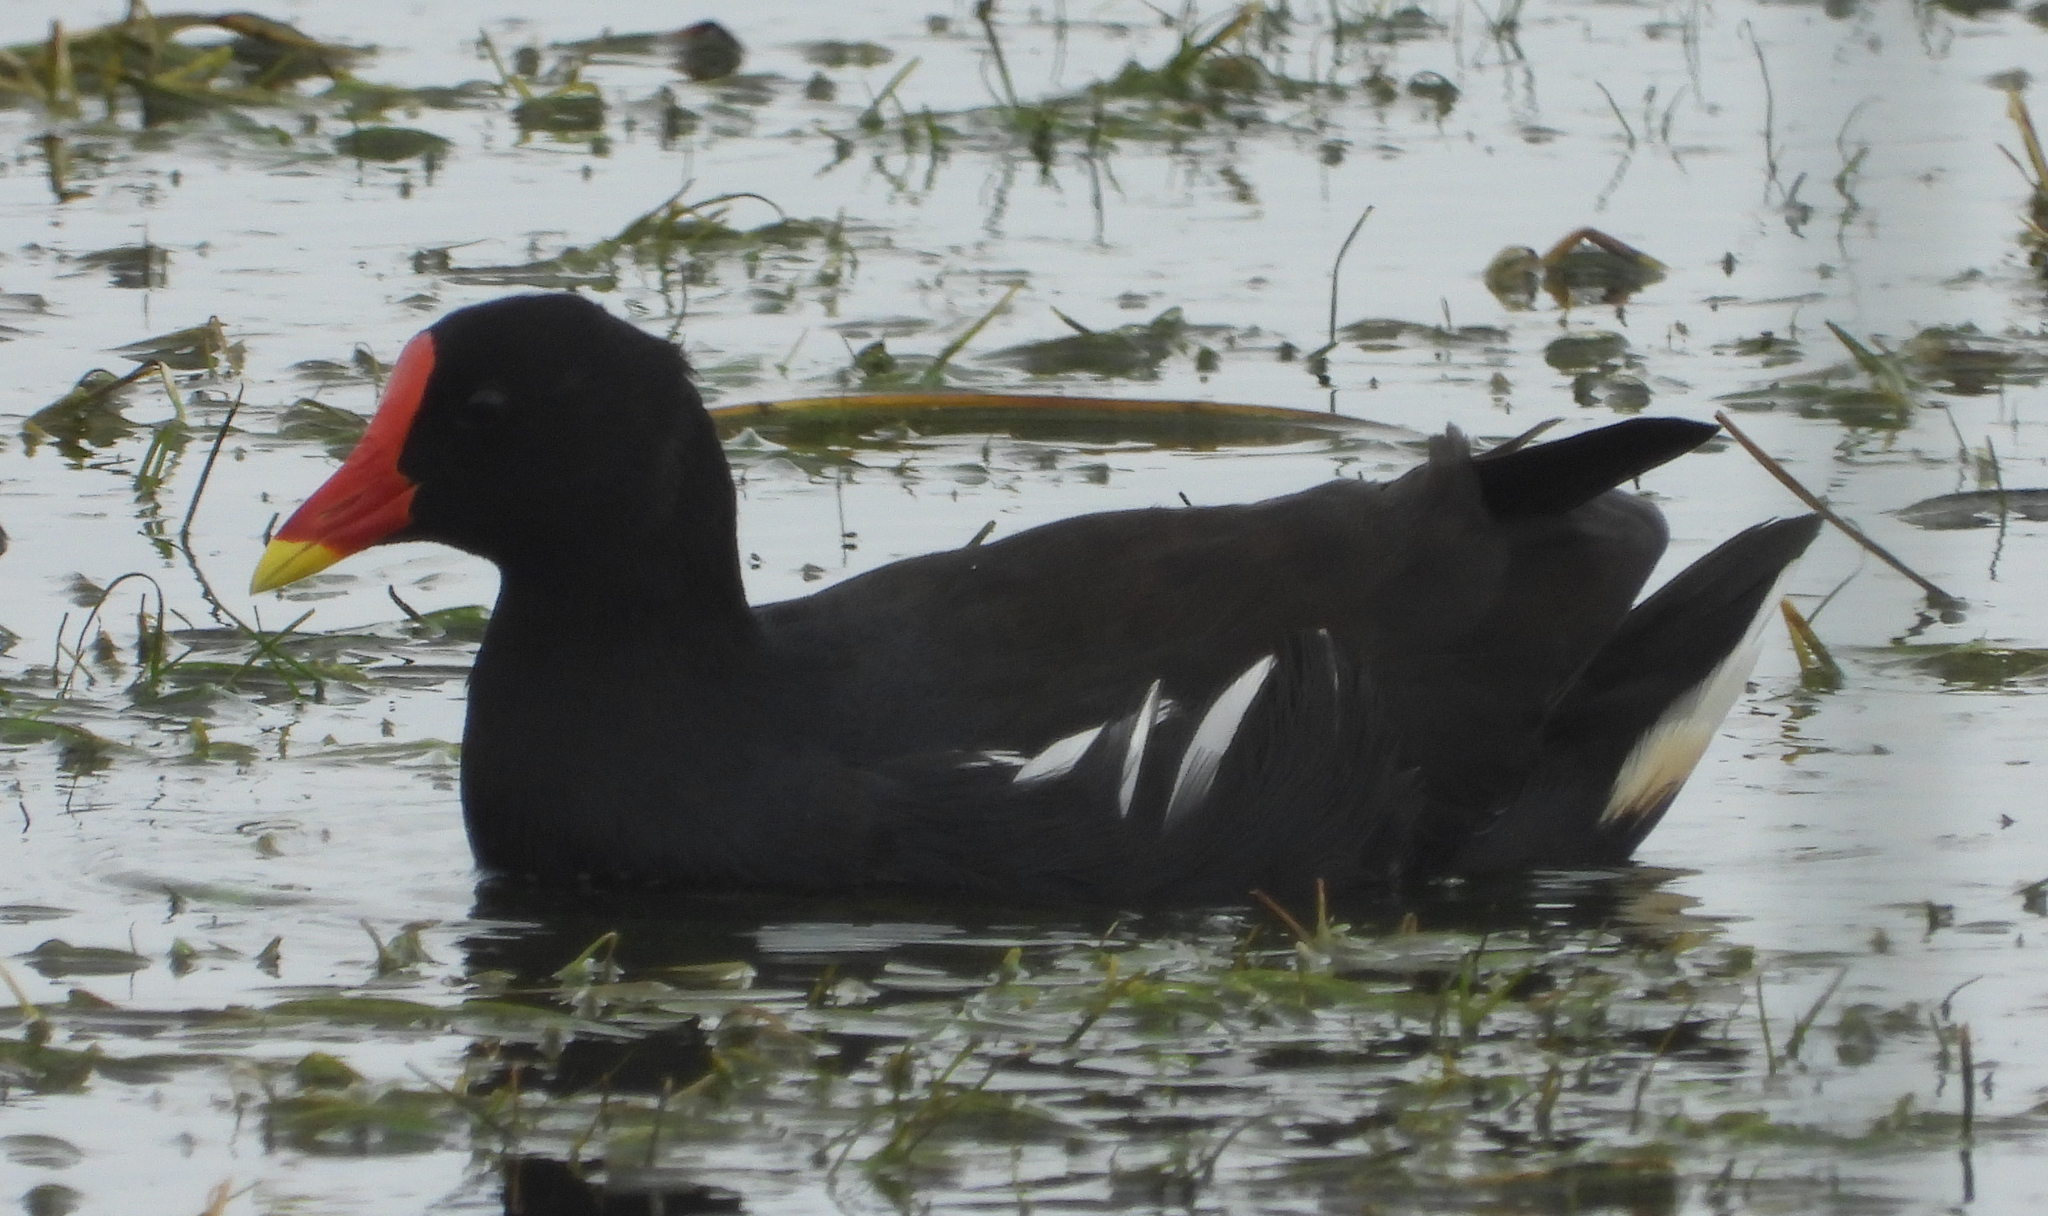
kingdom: Animalia
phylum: Chordata
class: Aves
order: Gruiformes
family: Rallidae
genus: Gallinula
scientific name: Gallinula chloropus
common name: Common moorhen
